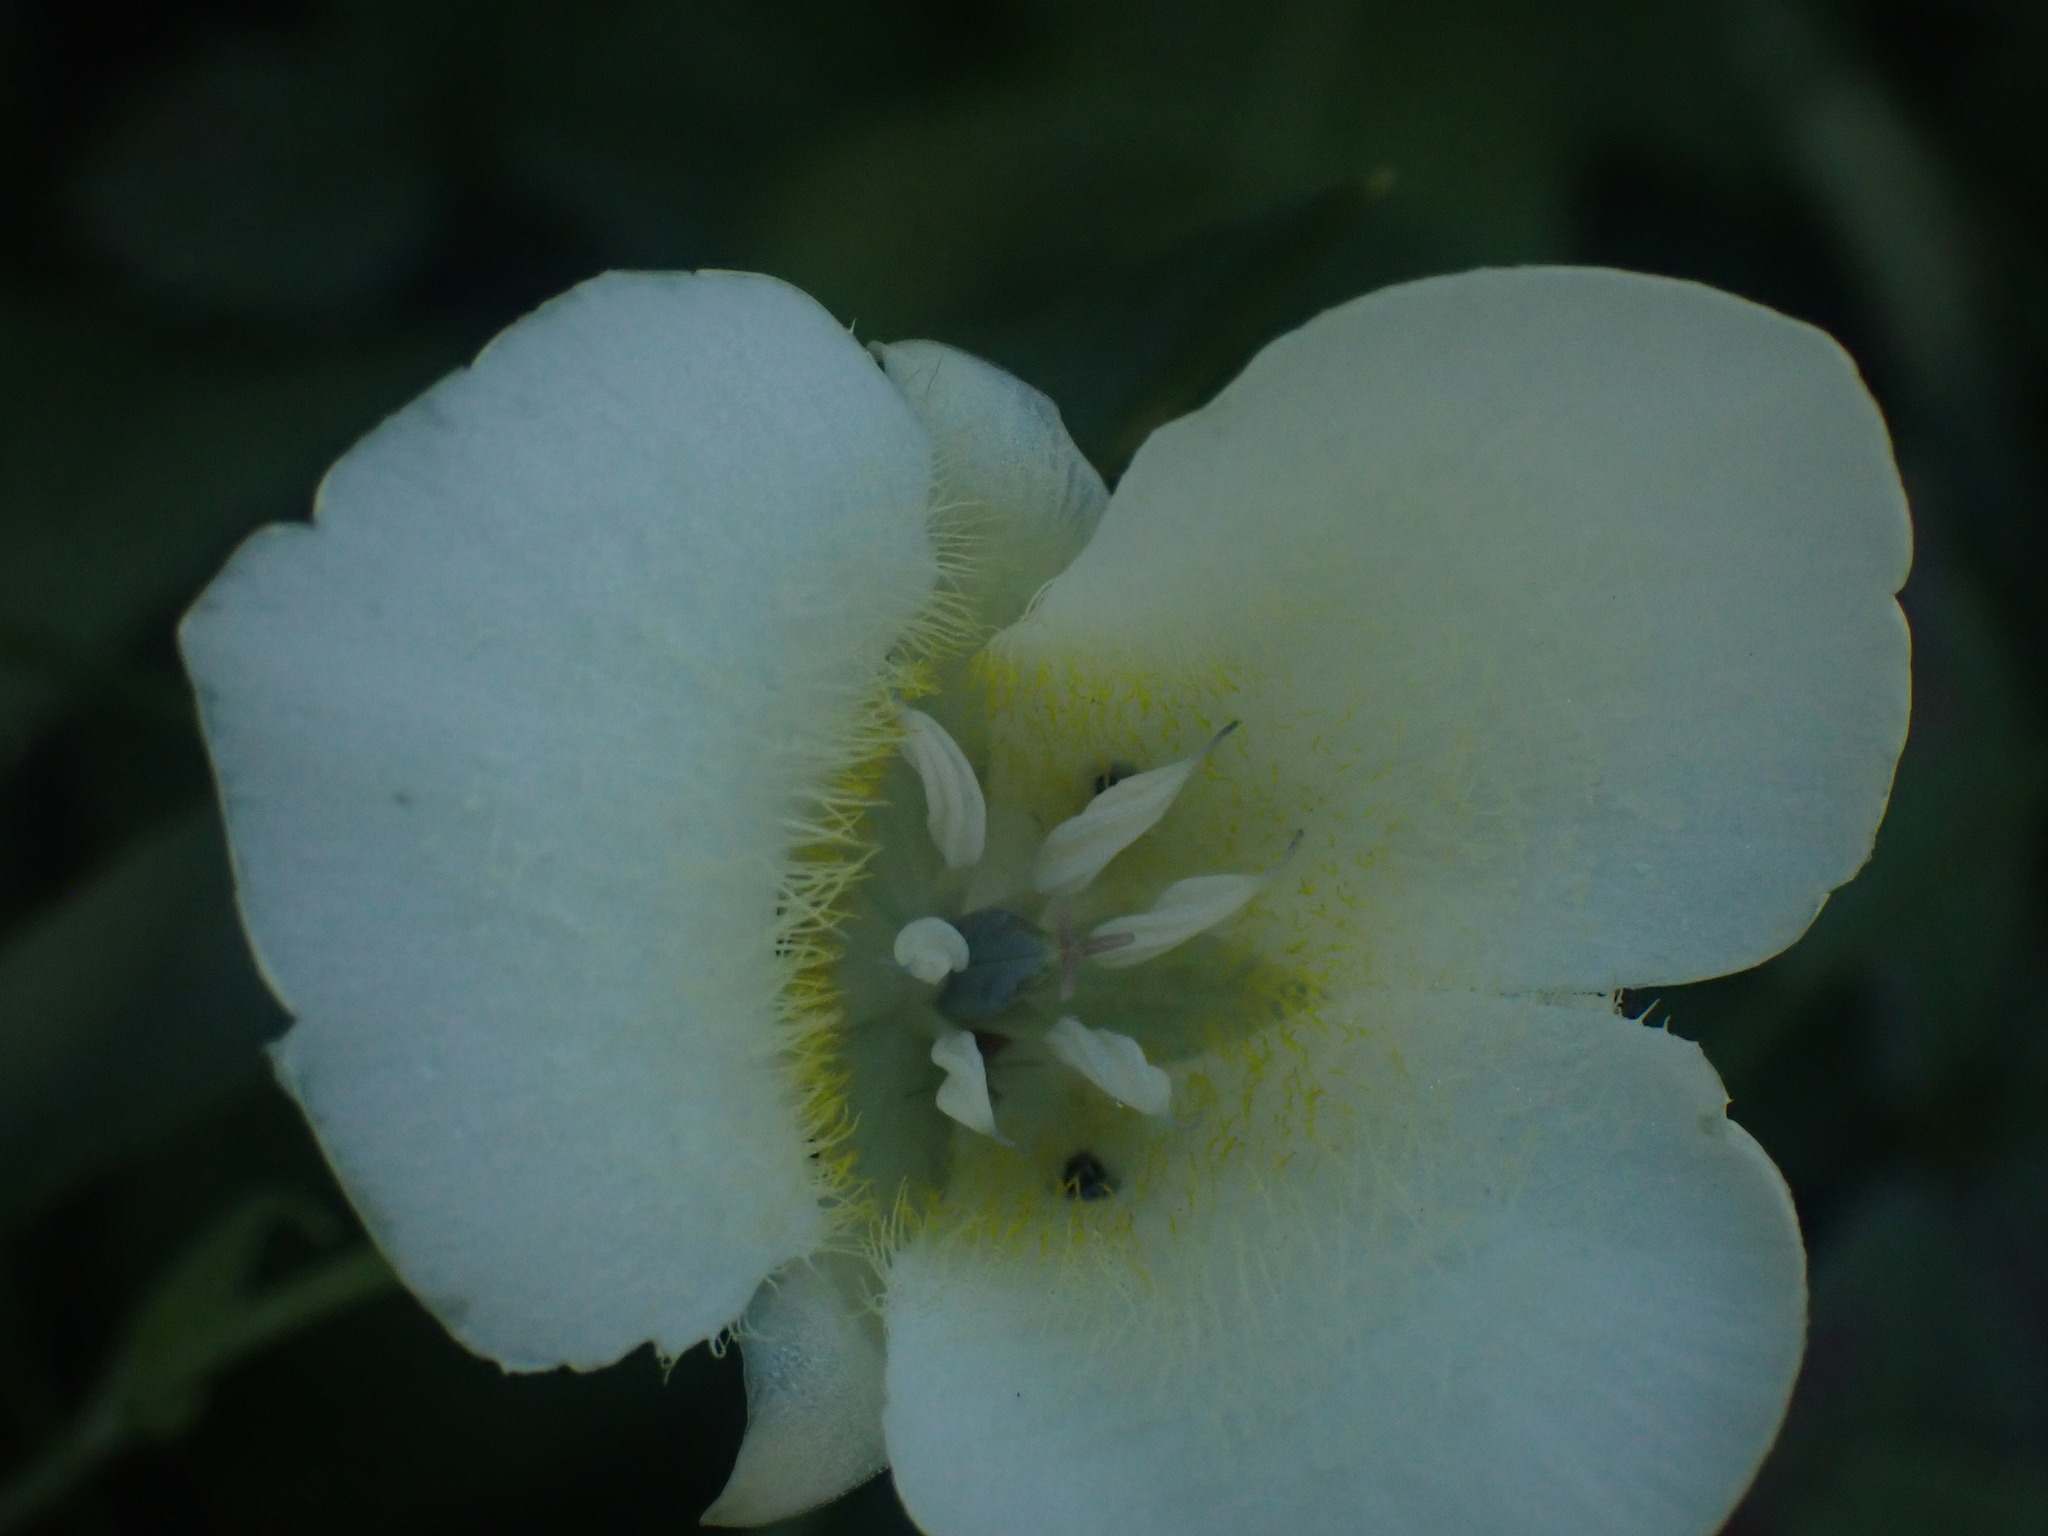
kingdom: Plantae
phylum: Tracheophyta
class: Liliopsida
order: Liliales
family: Liliaceae
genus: Calochortus
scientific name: Calochortus apiculatus
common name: Baker's mariposa lily
